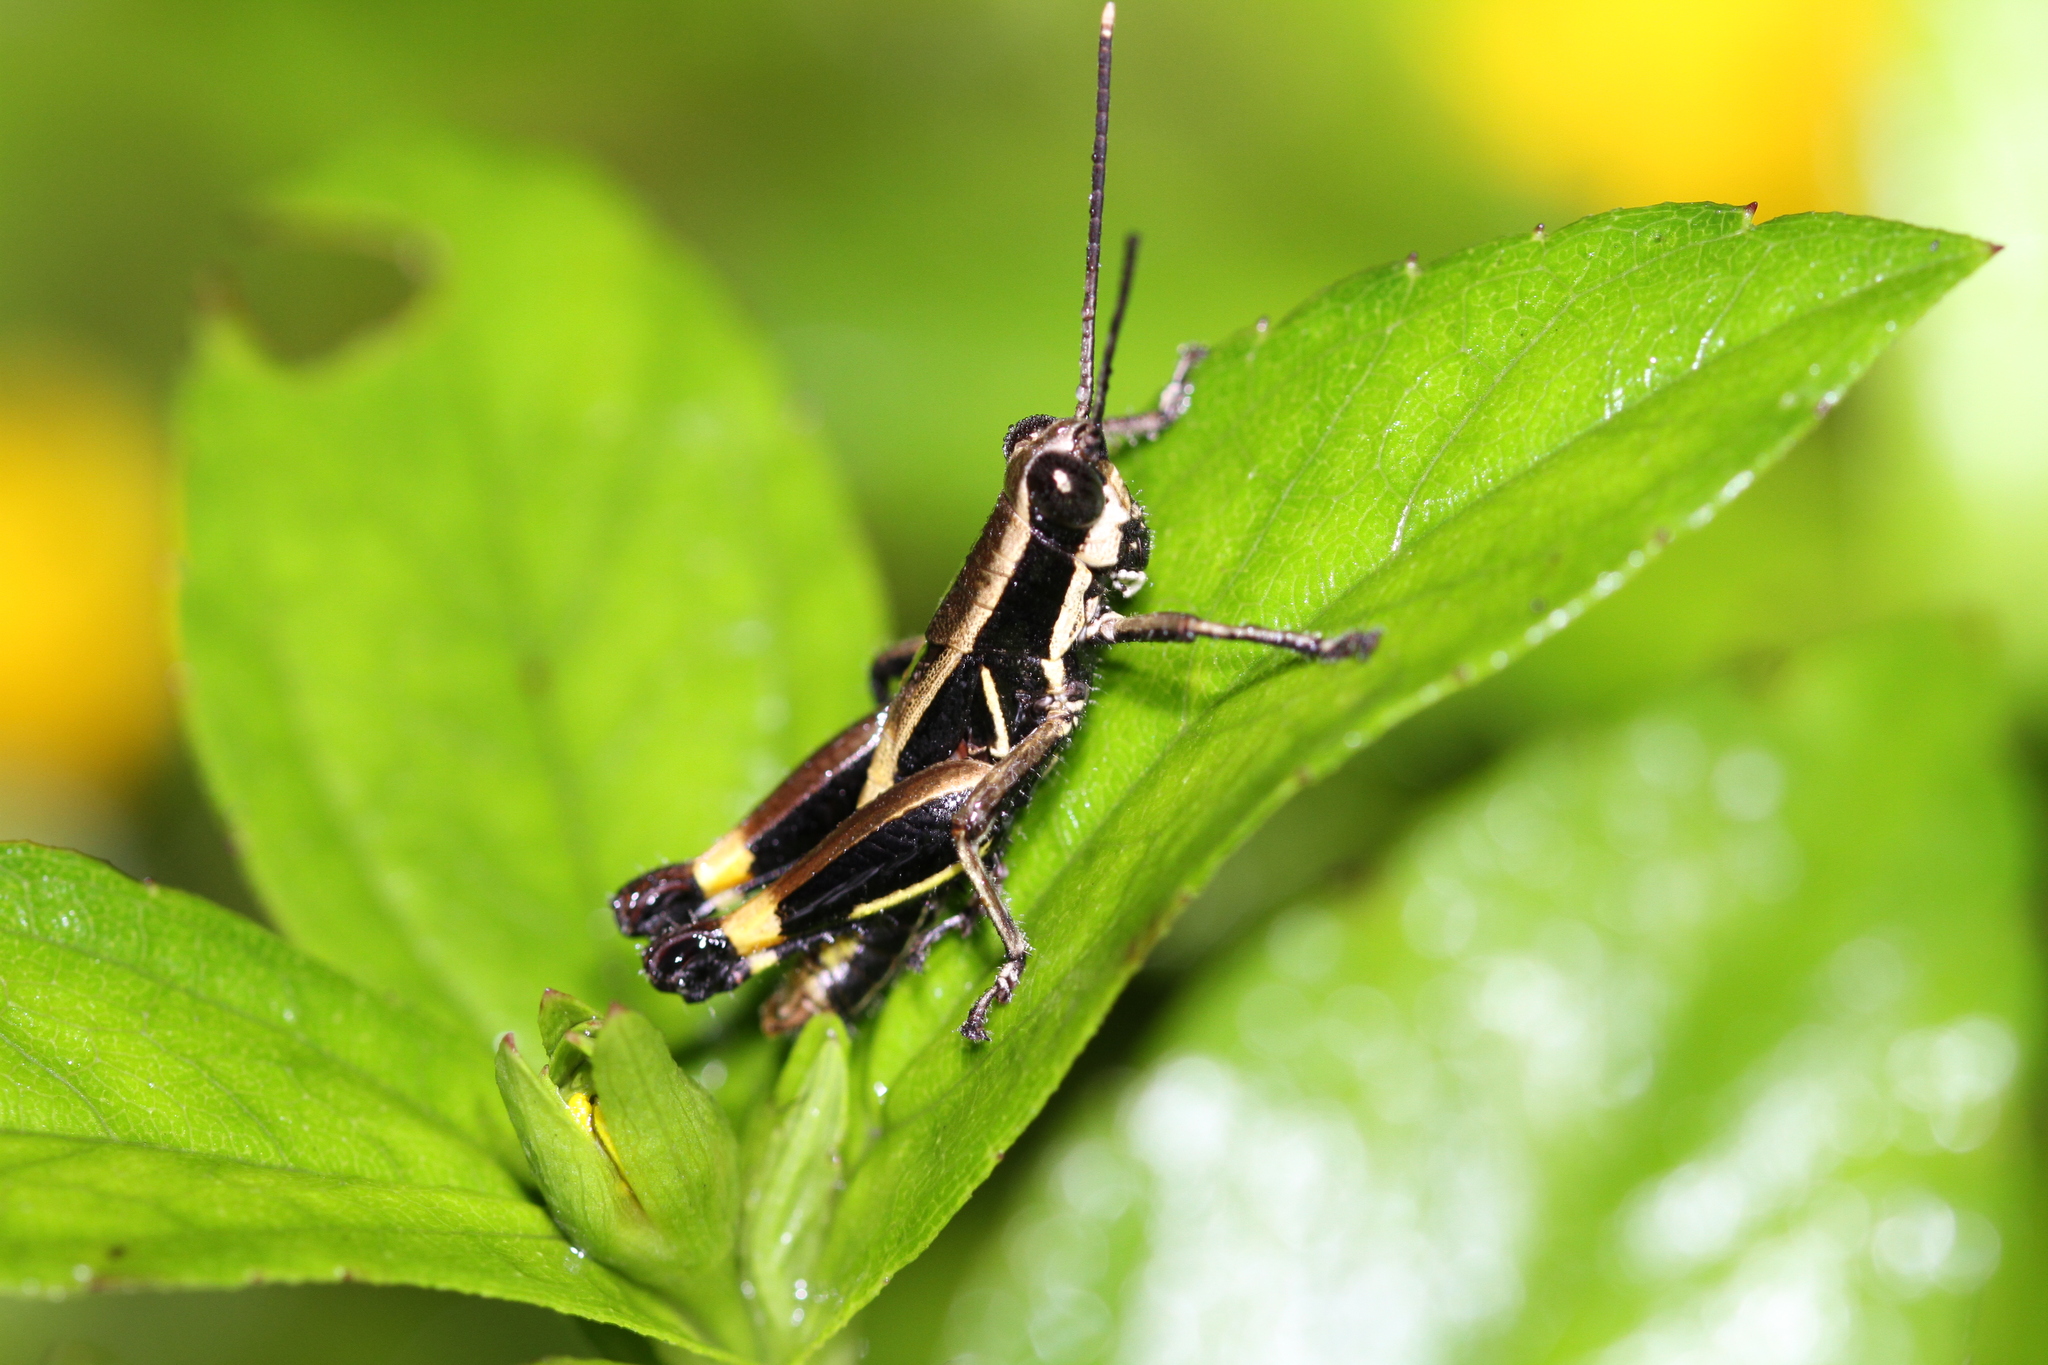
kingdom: Animalia
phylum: Arthropoda
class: Insecta
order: Orthoptera
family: Acrididae
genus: Traulia
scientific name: Traulia flavoannulata
